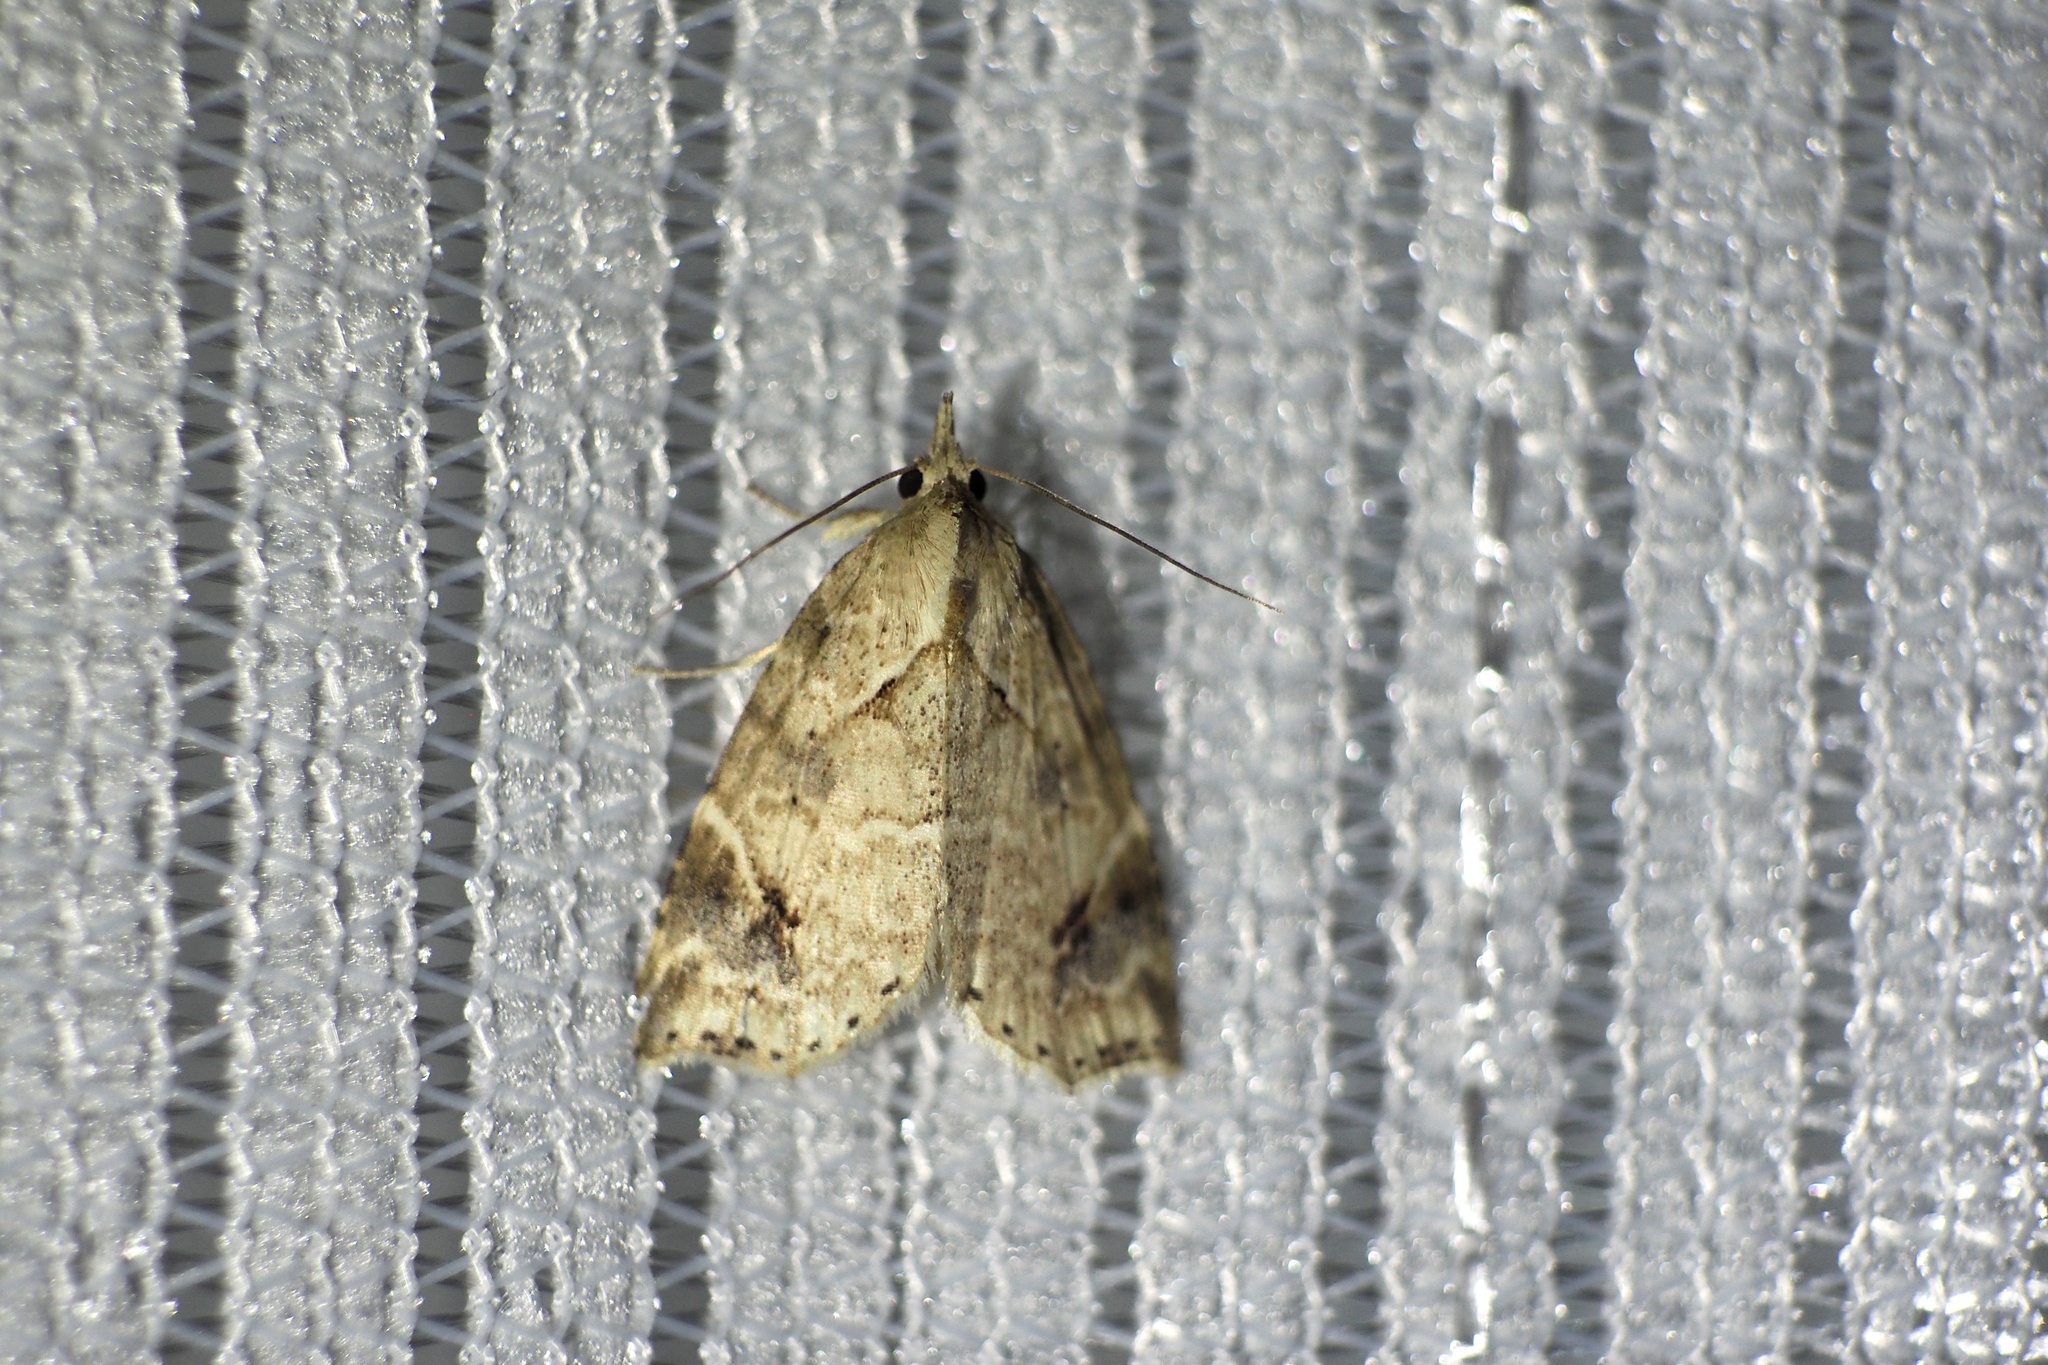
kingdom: Animalia
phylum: Arthropoda
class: Insecta
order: Lepidoptera
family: Erebidae
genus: Olulis
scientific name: Olulis
